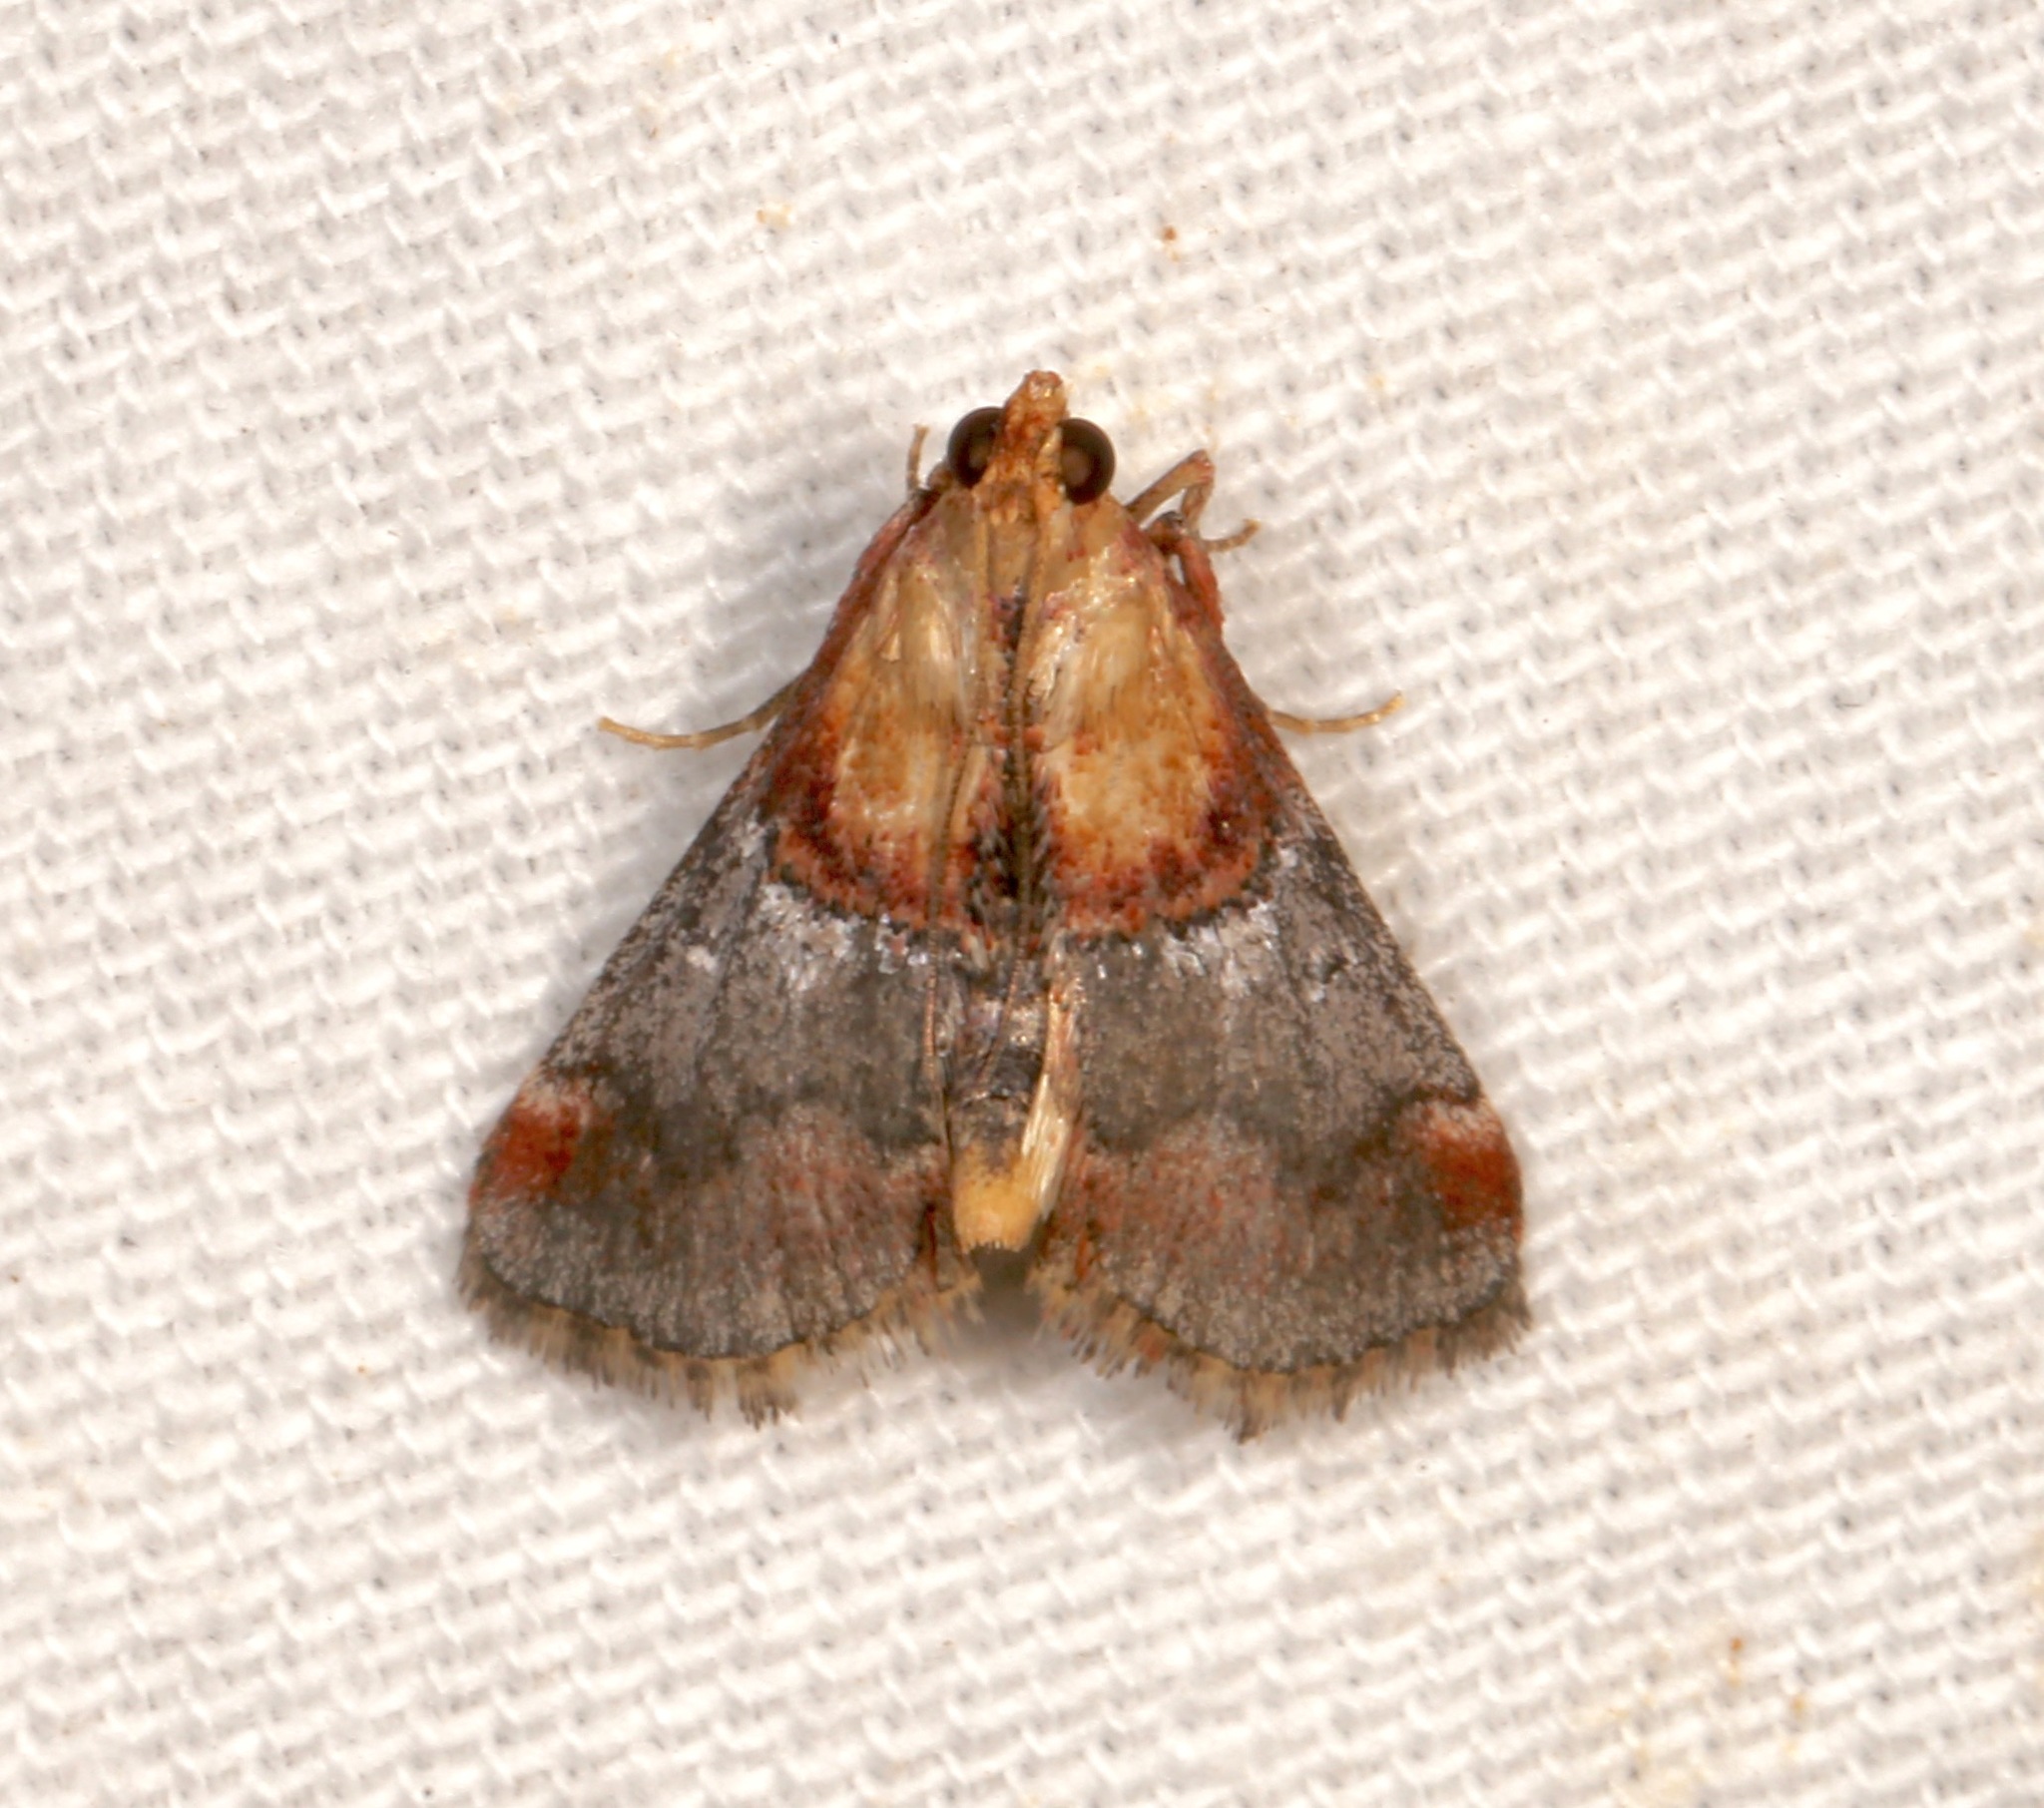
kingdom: Animalia
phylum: Arthropoda
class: Insecta
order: Lepidoptera
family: Pyralidae
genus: Cacozelia
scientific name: Cacozelia basiochrealis
